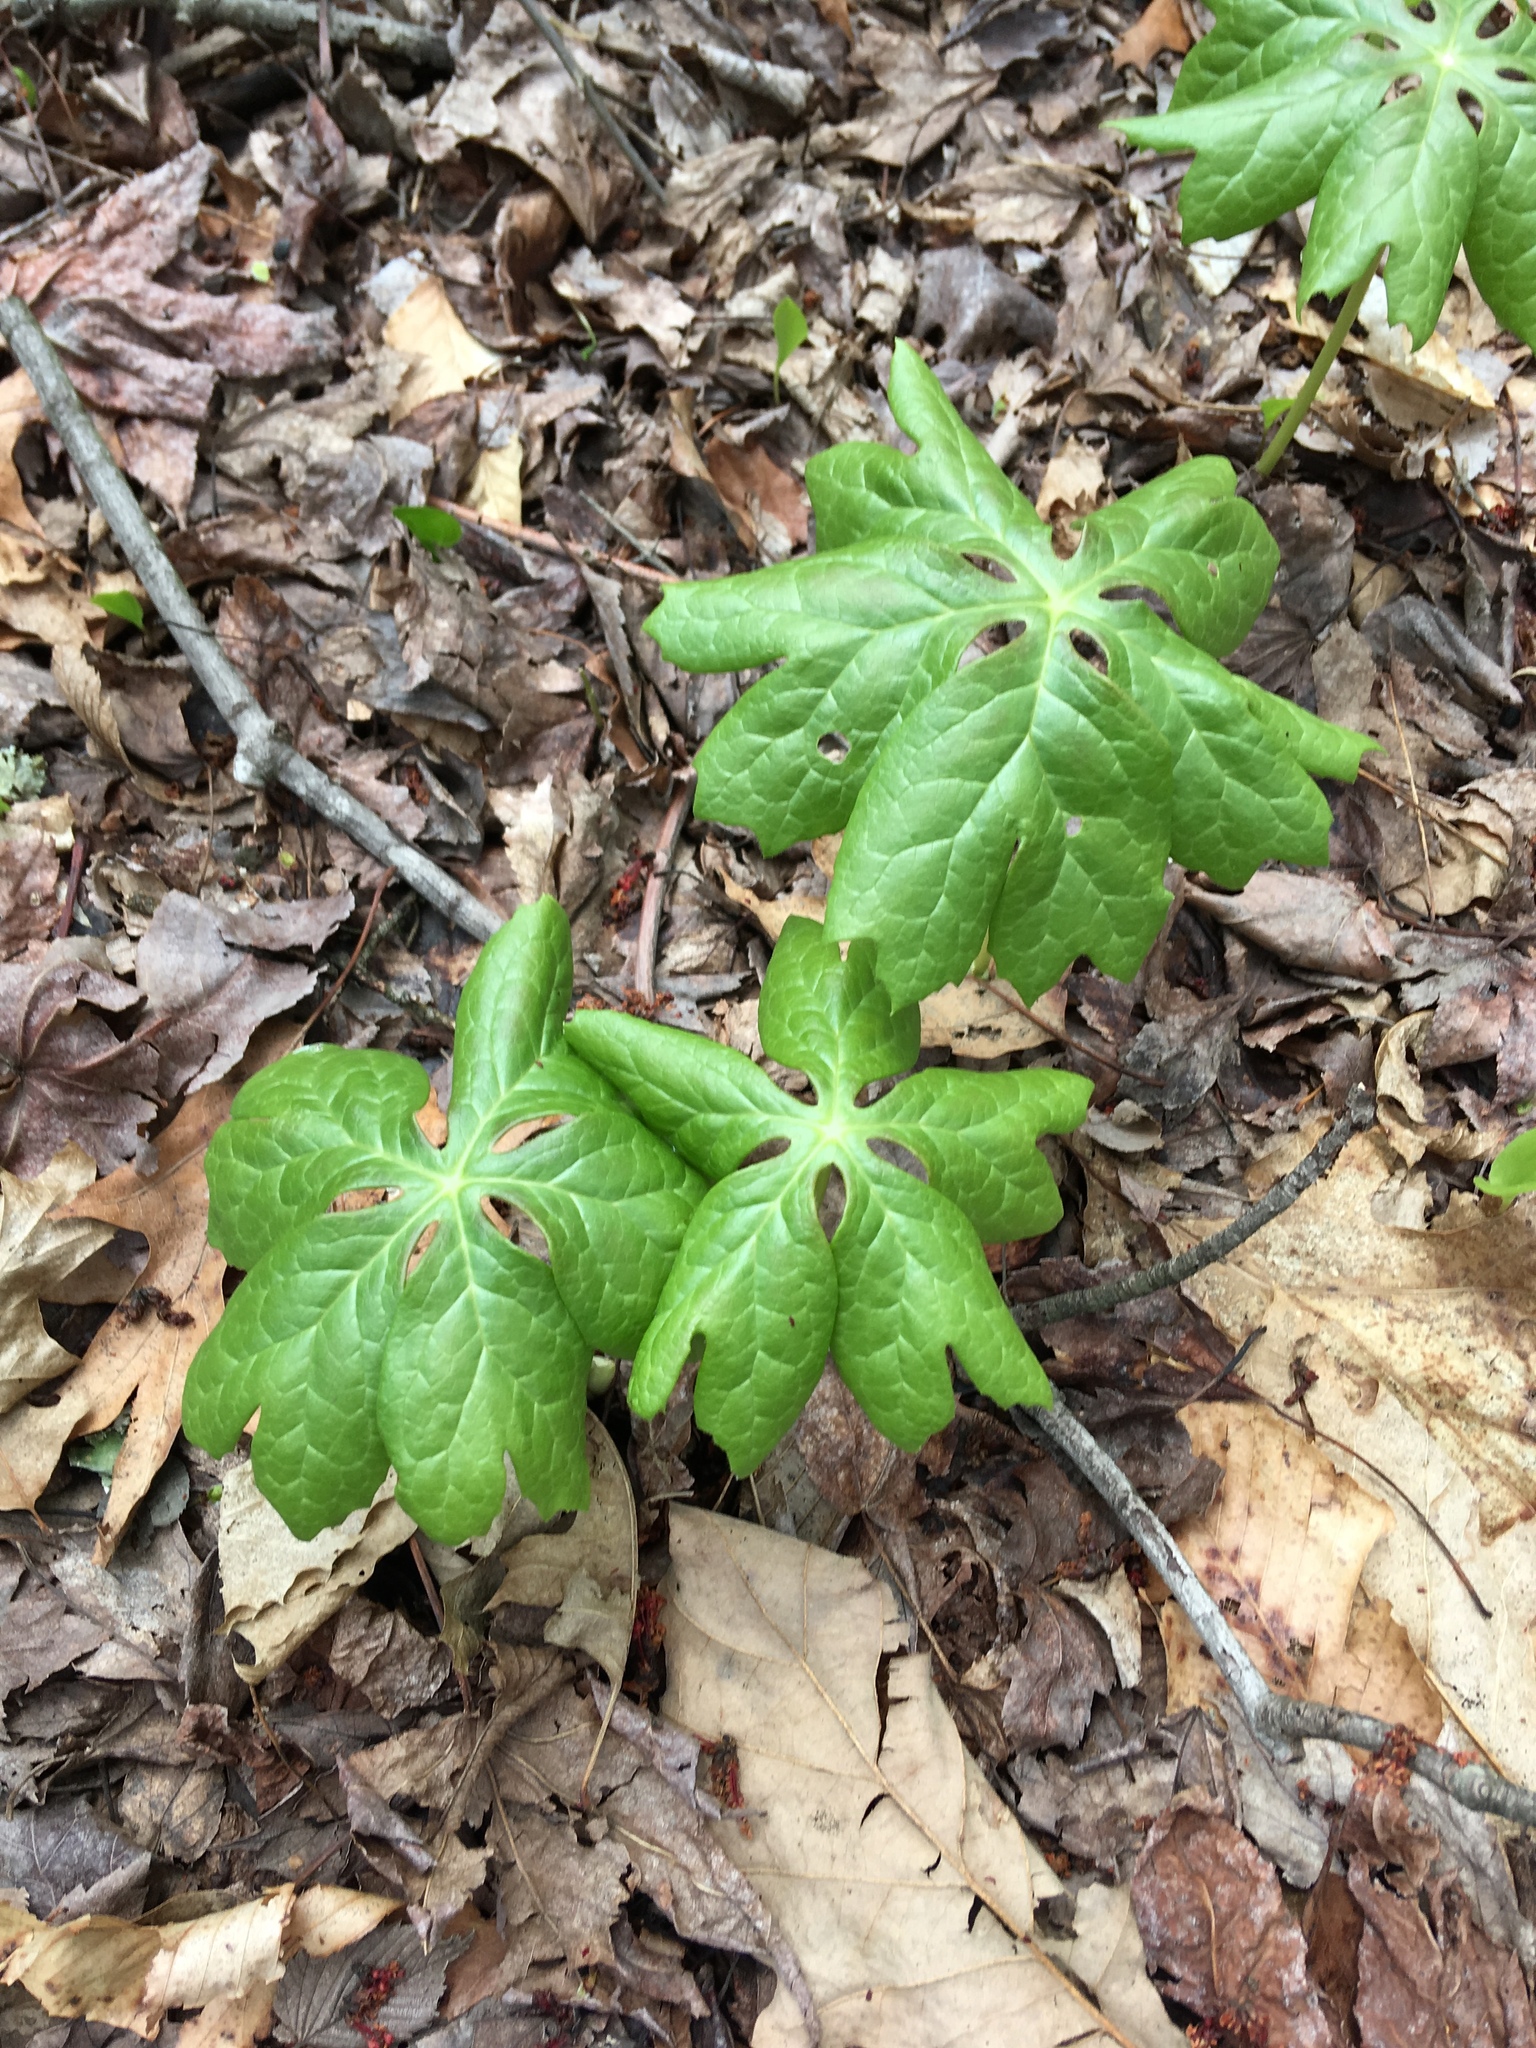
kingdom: Plantae
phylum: Tracheophyta
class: Magnoliopsida
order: Ranunculales
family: Berberidaceae
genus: Podophyllum
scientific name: Podophyllum peltatum
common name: Wild mandrake
